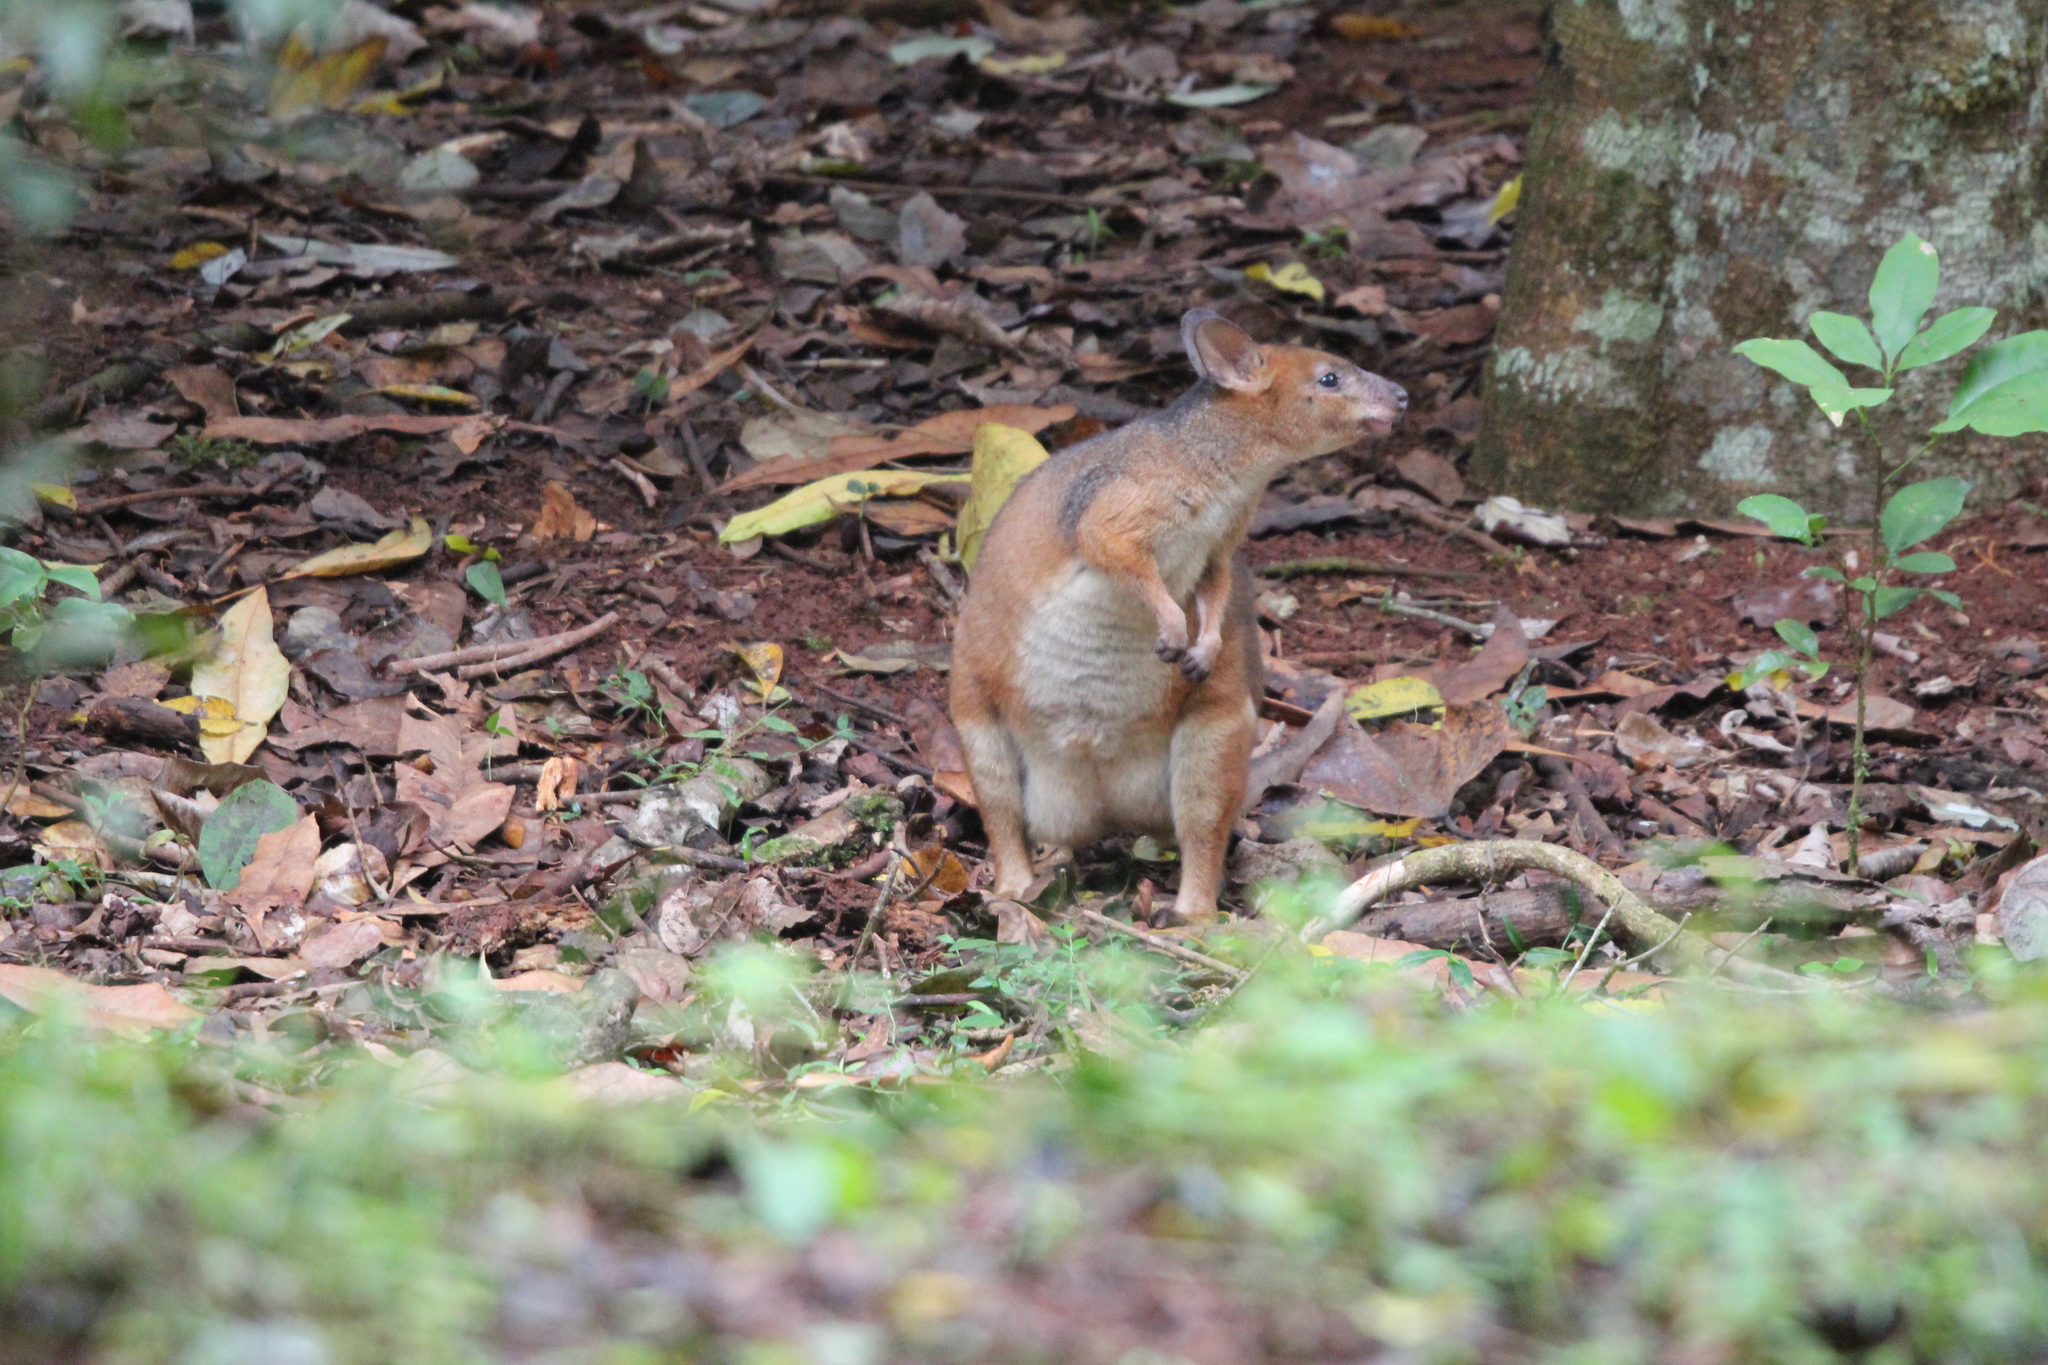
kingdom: Animalia
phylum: Chordata
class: Mammalia
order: Diprotodontia
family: Macropodidae
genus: Thylogale
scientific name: Thylogale stigmatica
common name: Red-legged pademelon
